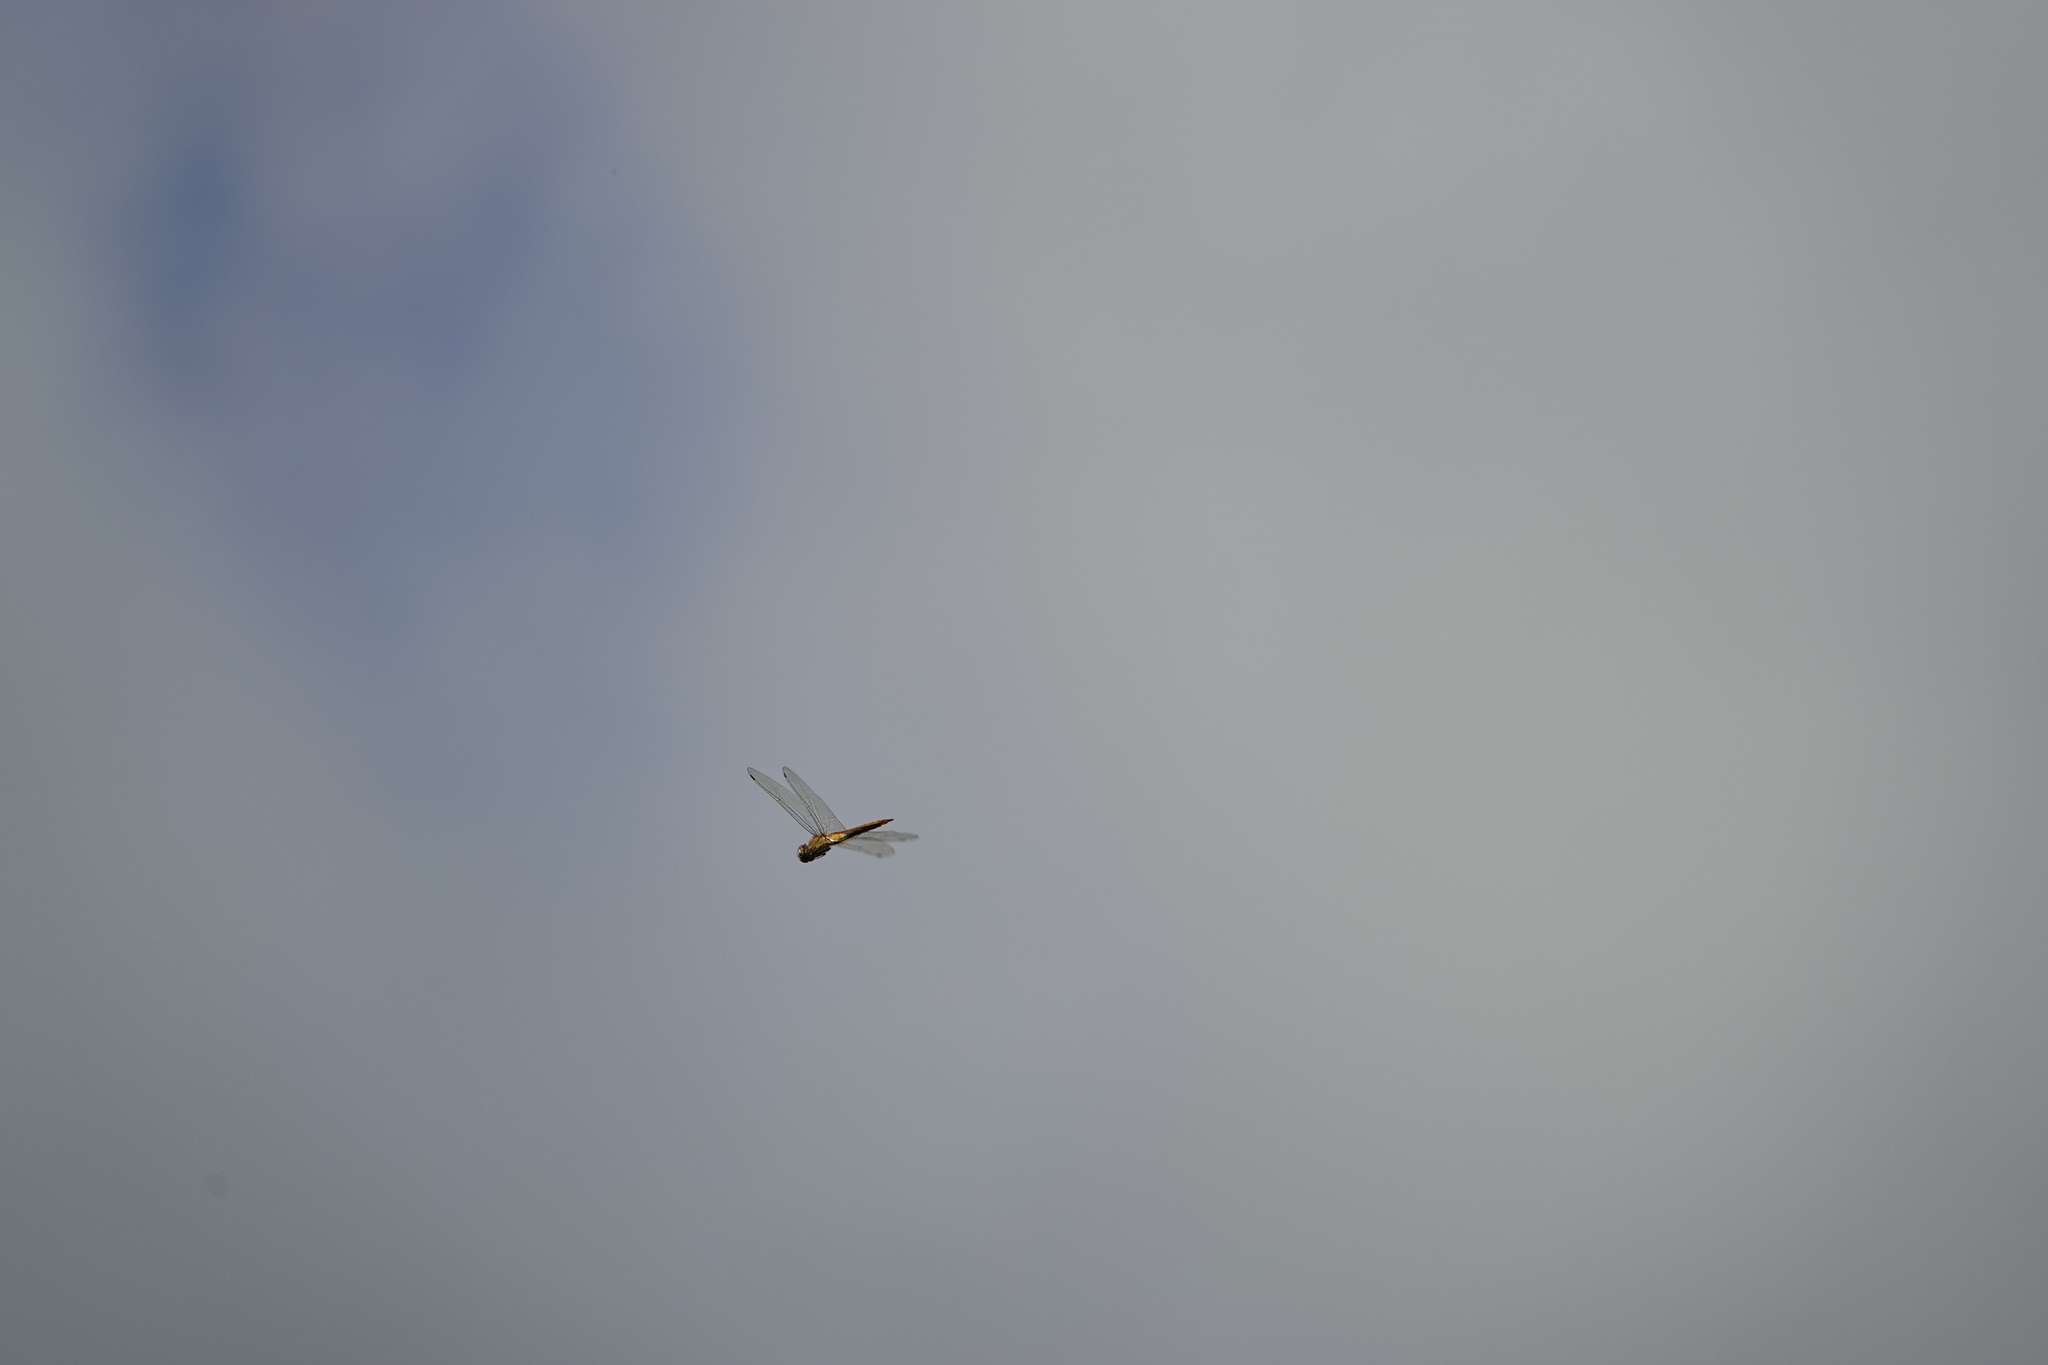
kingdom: Animalia
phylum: Arthropoda
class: Insecta
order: Odonata
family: Libellulidae
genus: Pantala
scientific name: Pantala flavescens
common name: Wandering glider
